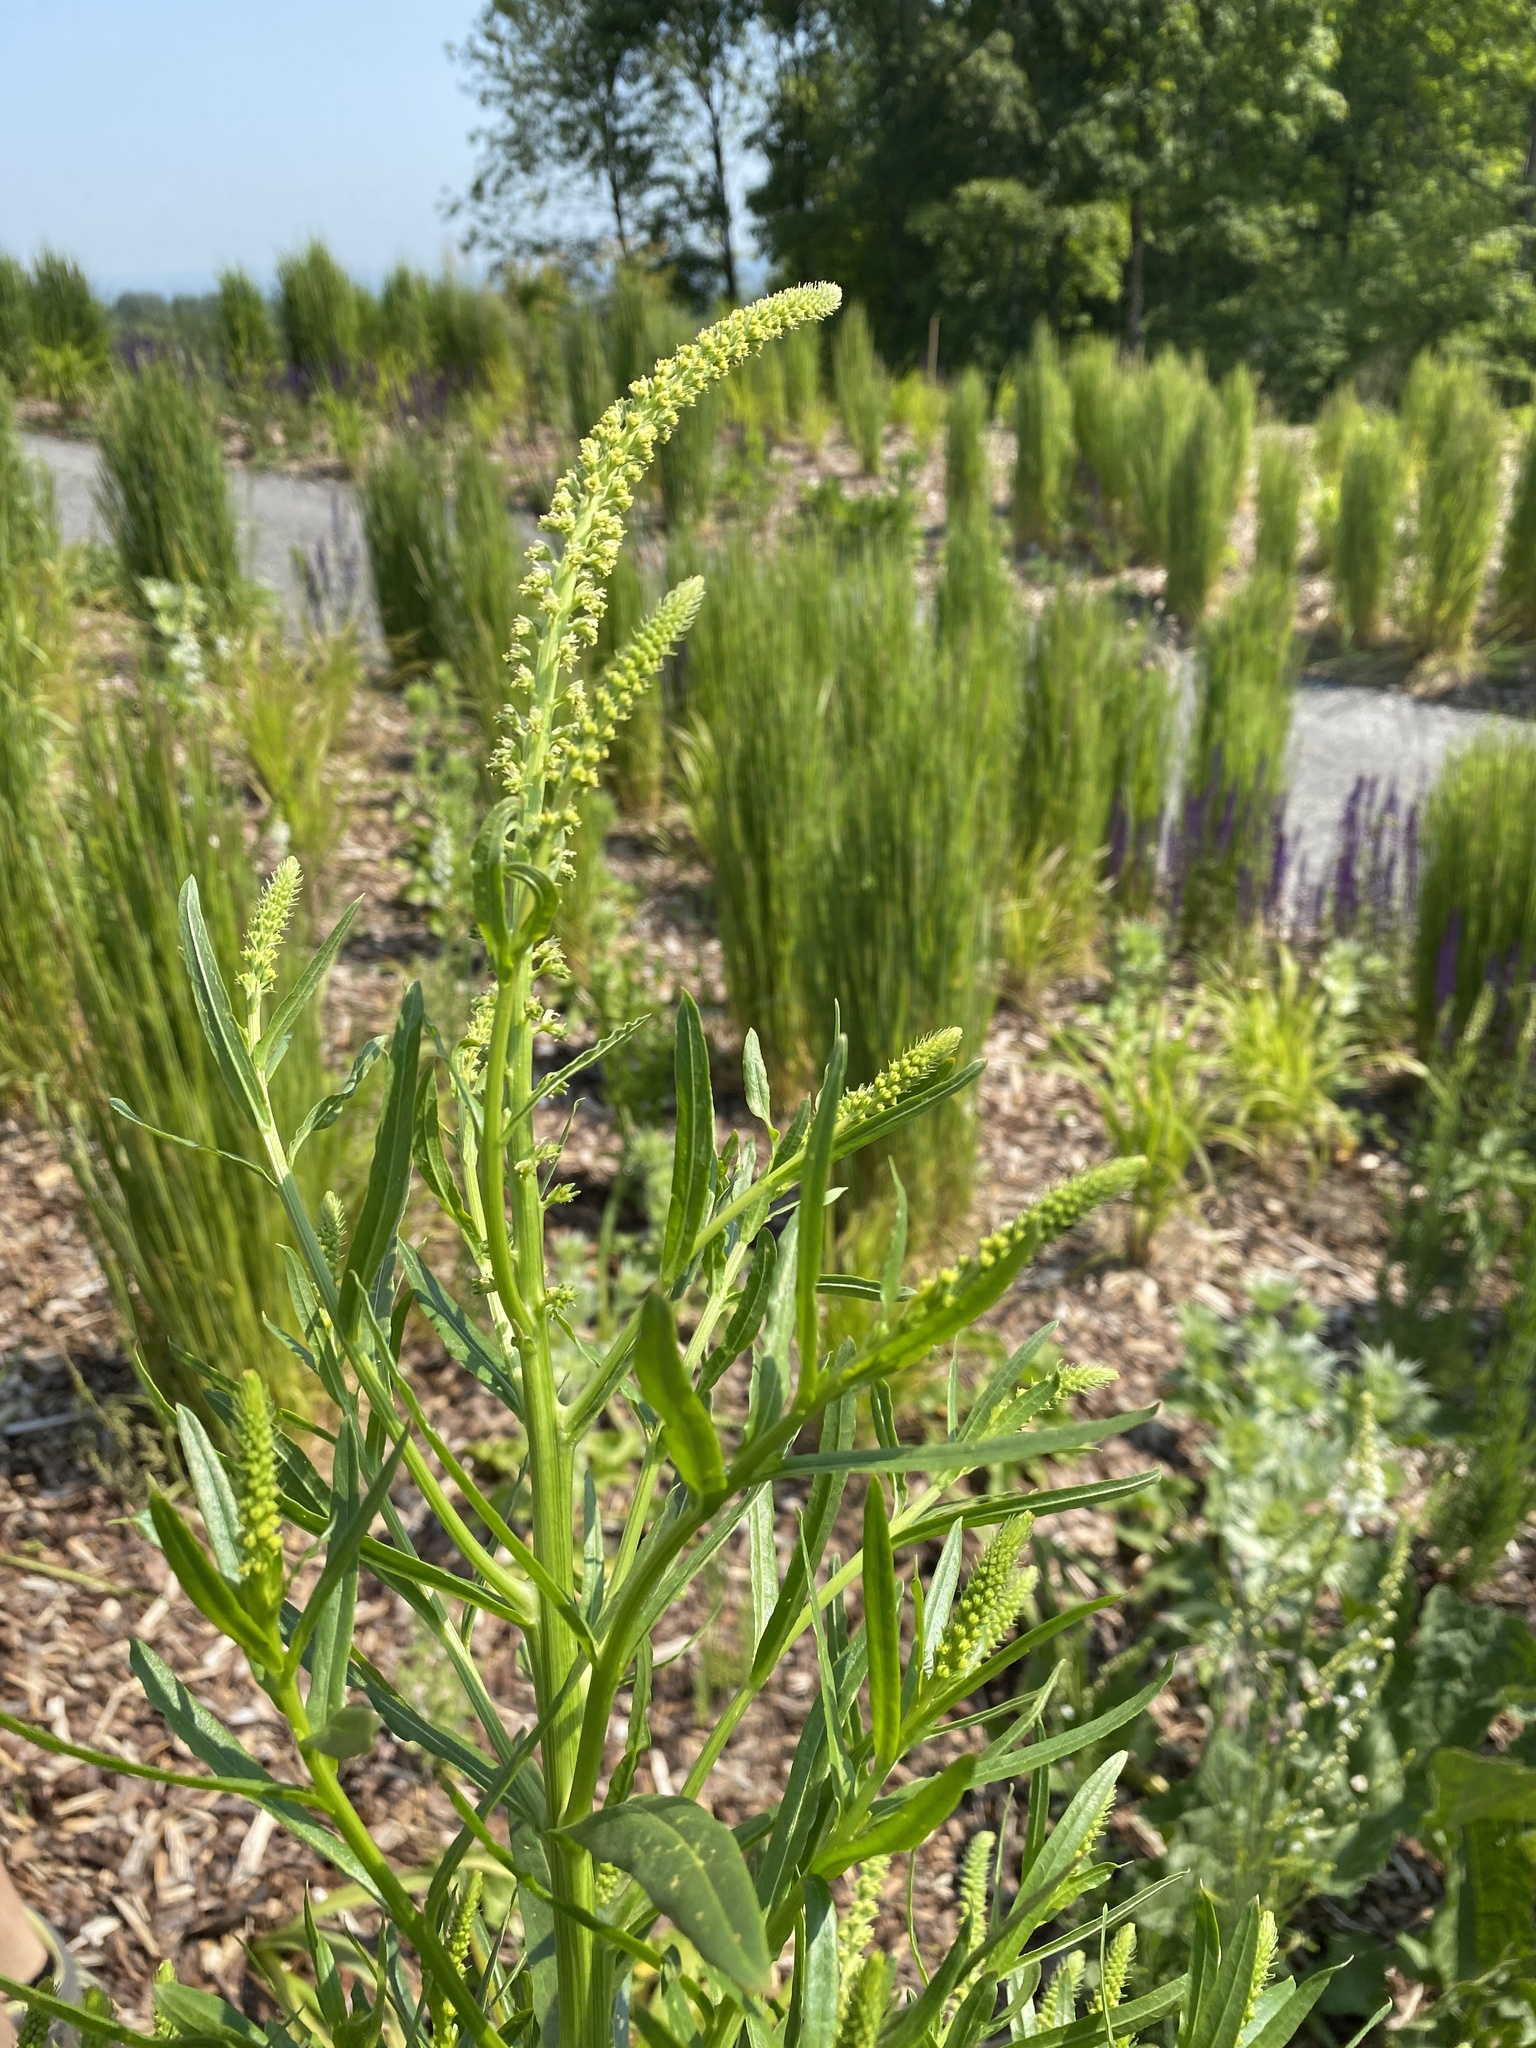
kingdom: Plantae
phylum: Tracheophyta
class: Magnoliopsida
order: Brassicales
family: Resedaceae
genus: Reseda
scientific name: Reseda luteola
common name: Weld
